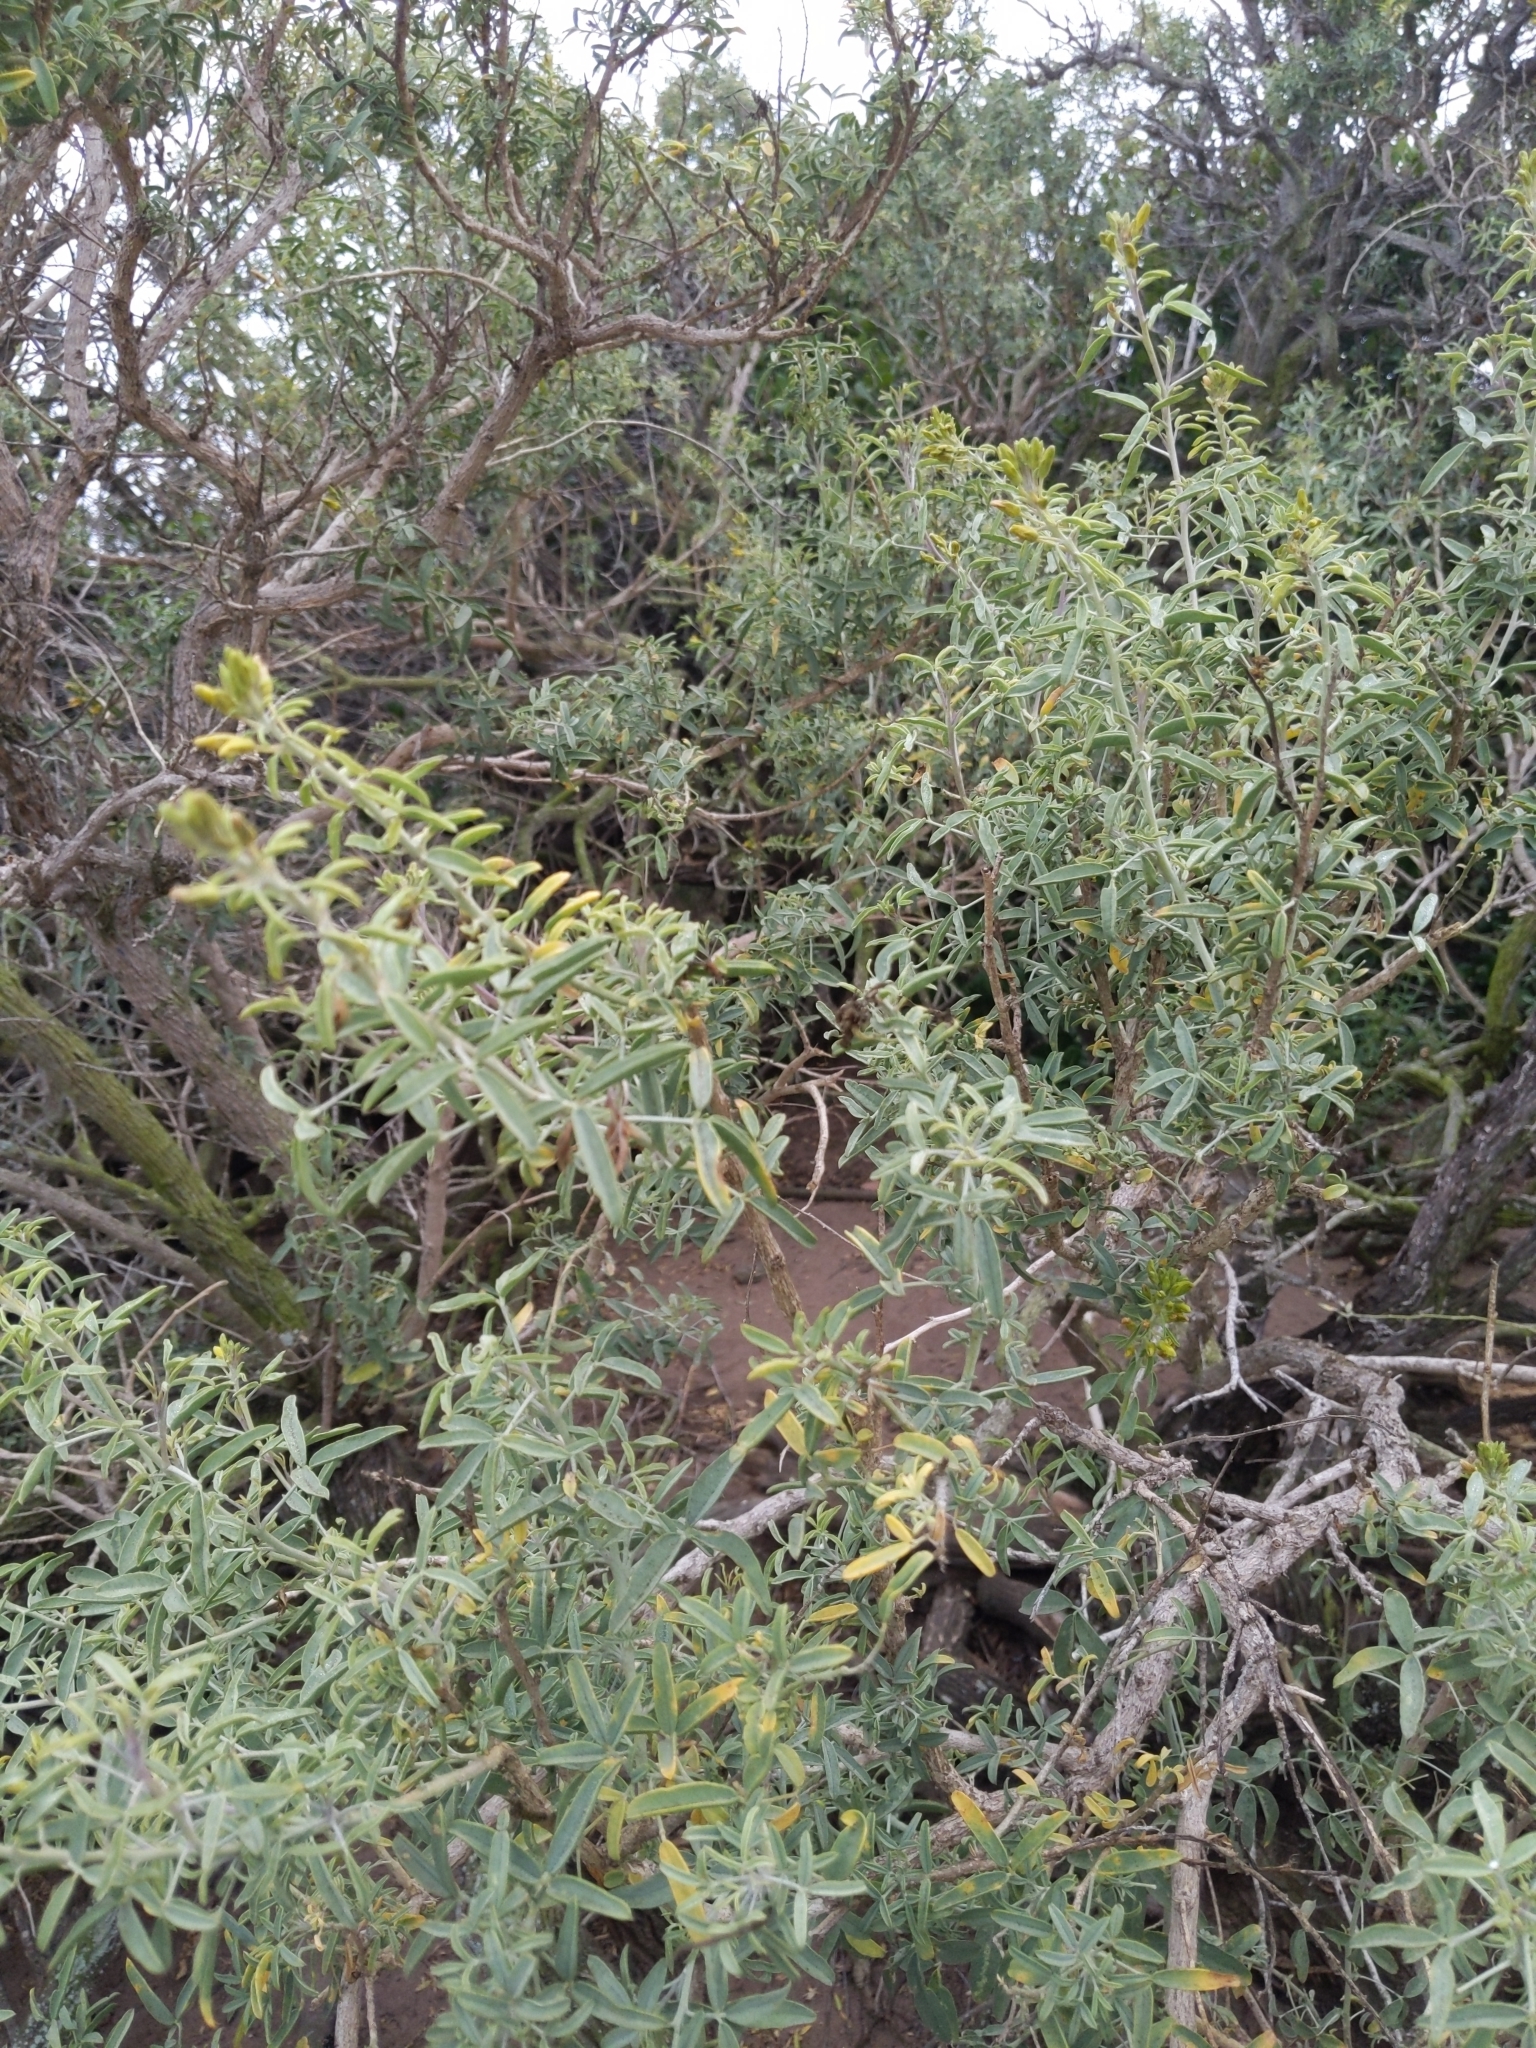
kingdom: Plantae
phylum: Tracheophyta
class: Magnoliopsida
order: Brassicales
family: Cleomaceae
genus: Cleomella
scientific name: Cleomella arborea
